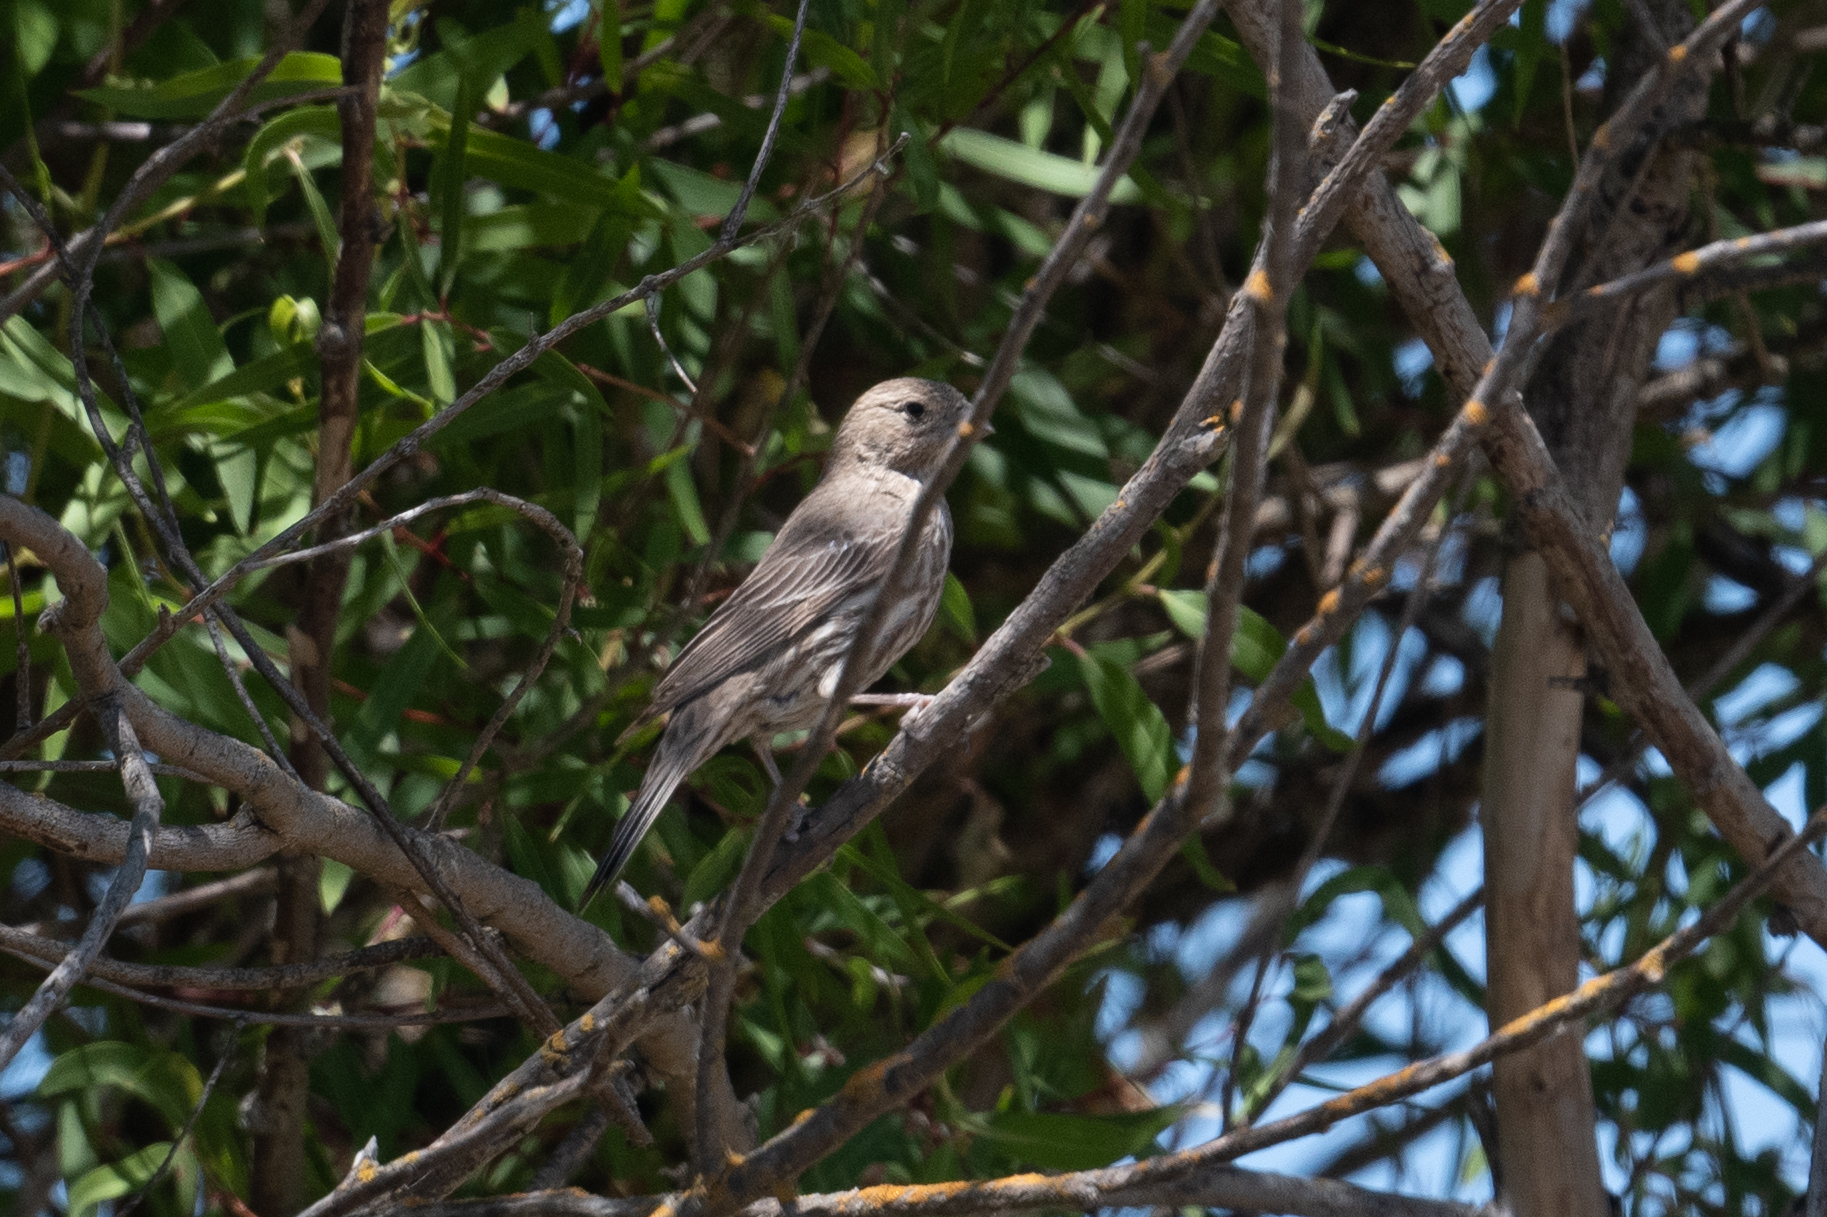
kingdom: Animalia
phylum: Chordata
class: Aves
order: Passeriformes
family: Fringillidae
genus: Haemorhous
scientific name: Haemorhous mexicanus
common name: House finch
